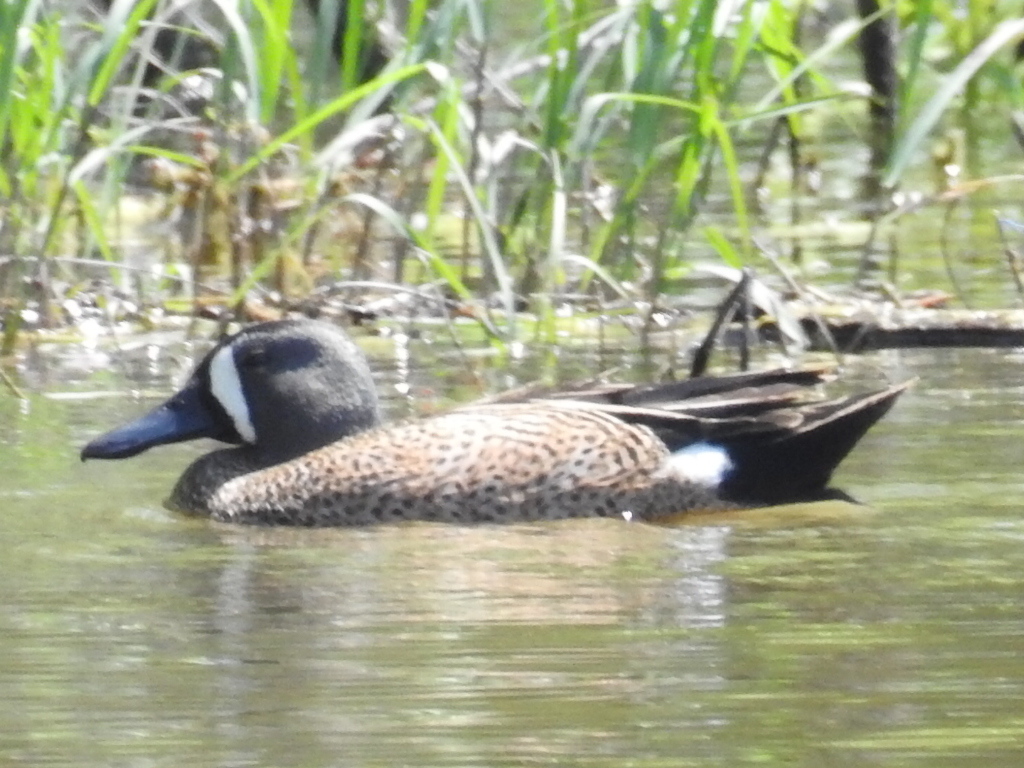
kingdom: Animalia
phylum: Chordata
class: Aves
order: Anseriformes
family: Anatidae
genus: Spatula
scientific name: Spatula discors
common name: Blue-winged teal
